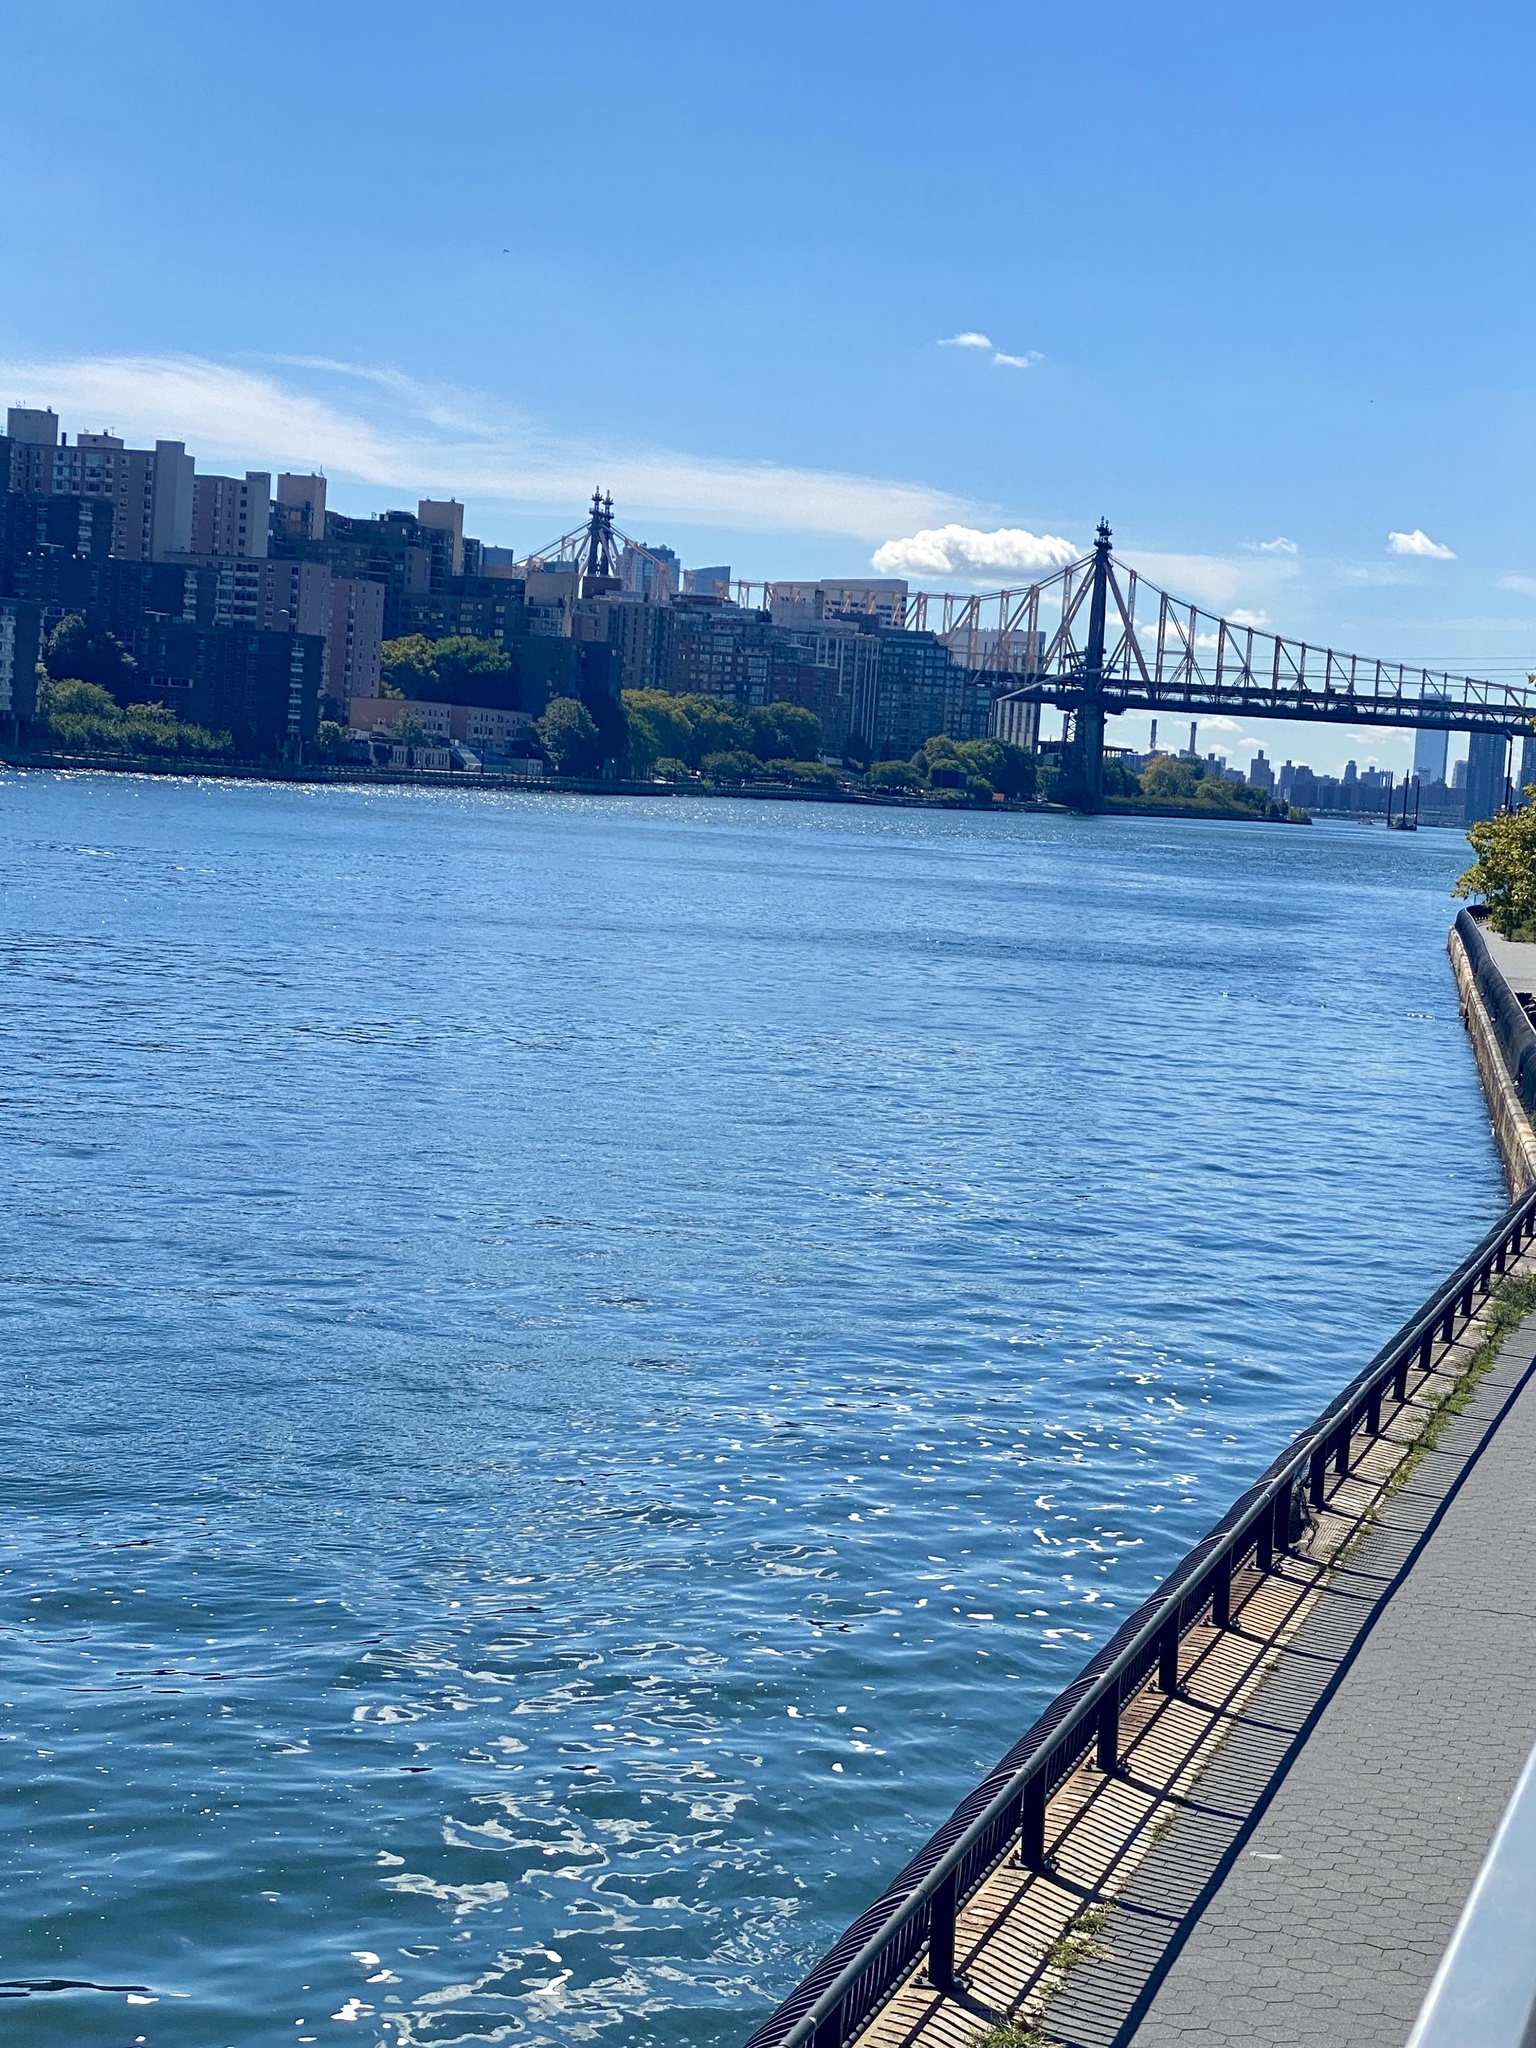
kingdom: Animalia
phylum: Chordata
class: Aves
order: Columbiformes
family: Columbidae
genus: Columba
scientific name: Columba livia
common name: Rock pigeon
